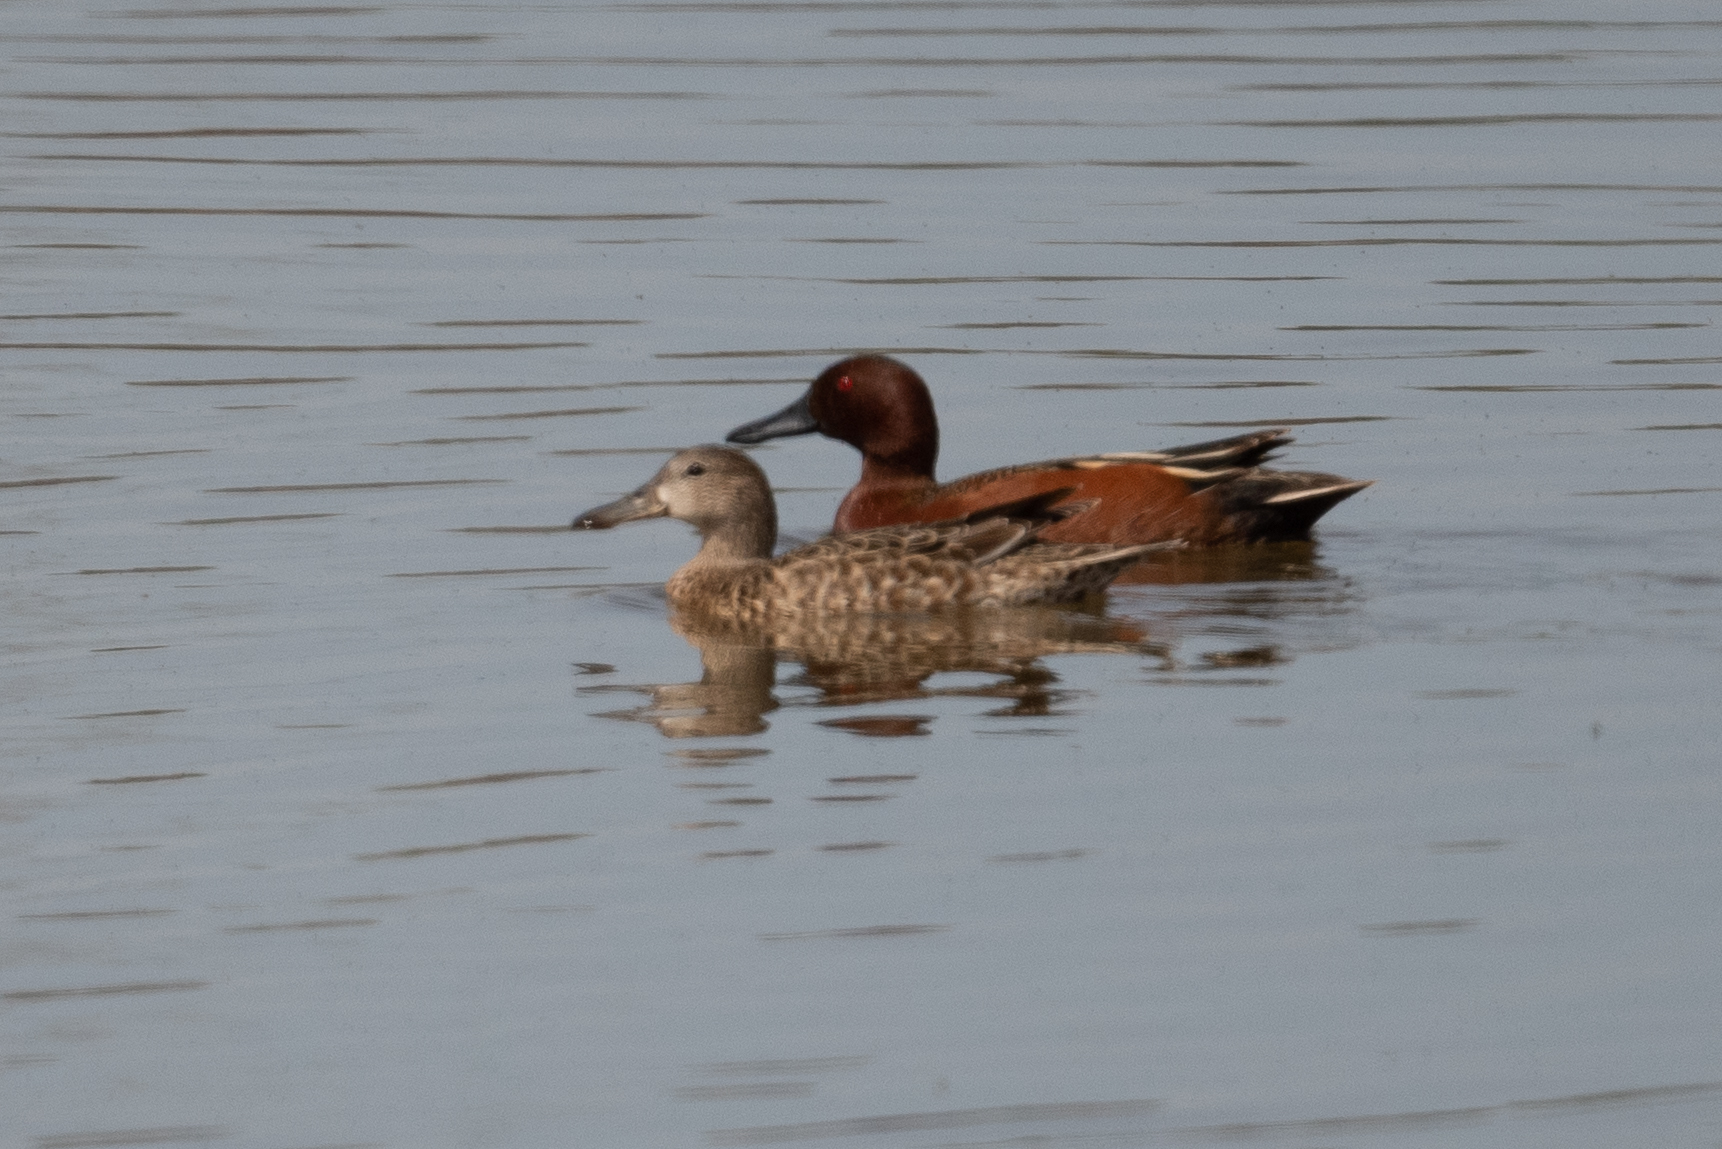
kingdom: Animalia
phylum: Chordata
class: Aves
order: Anseriformes
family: Anatidae
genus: Spatula
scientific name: Spatula cyanoptera
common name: Cinnamon teal
